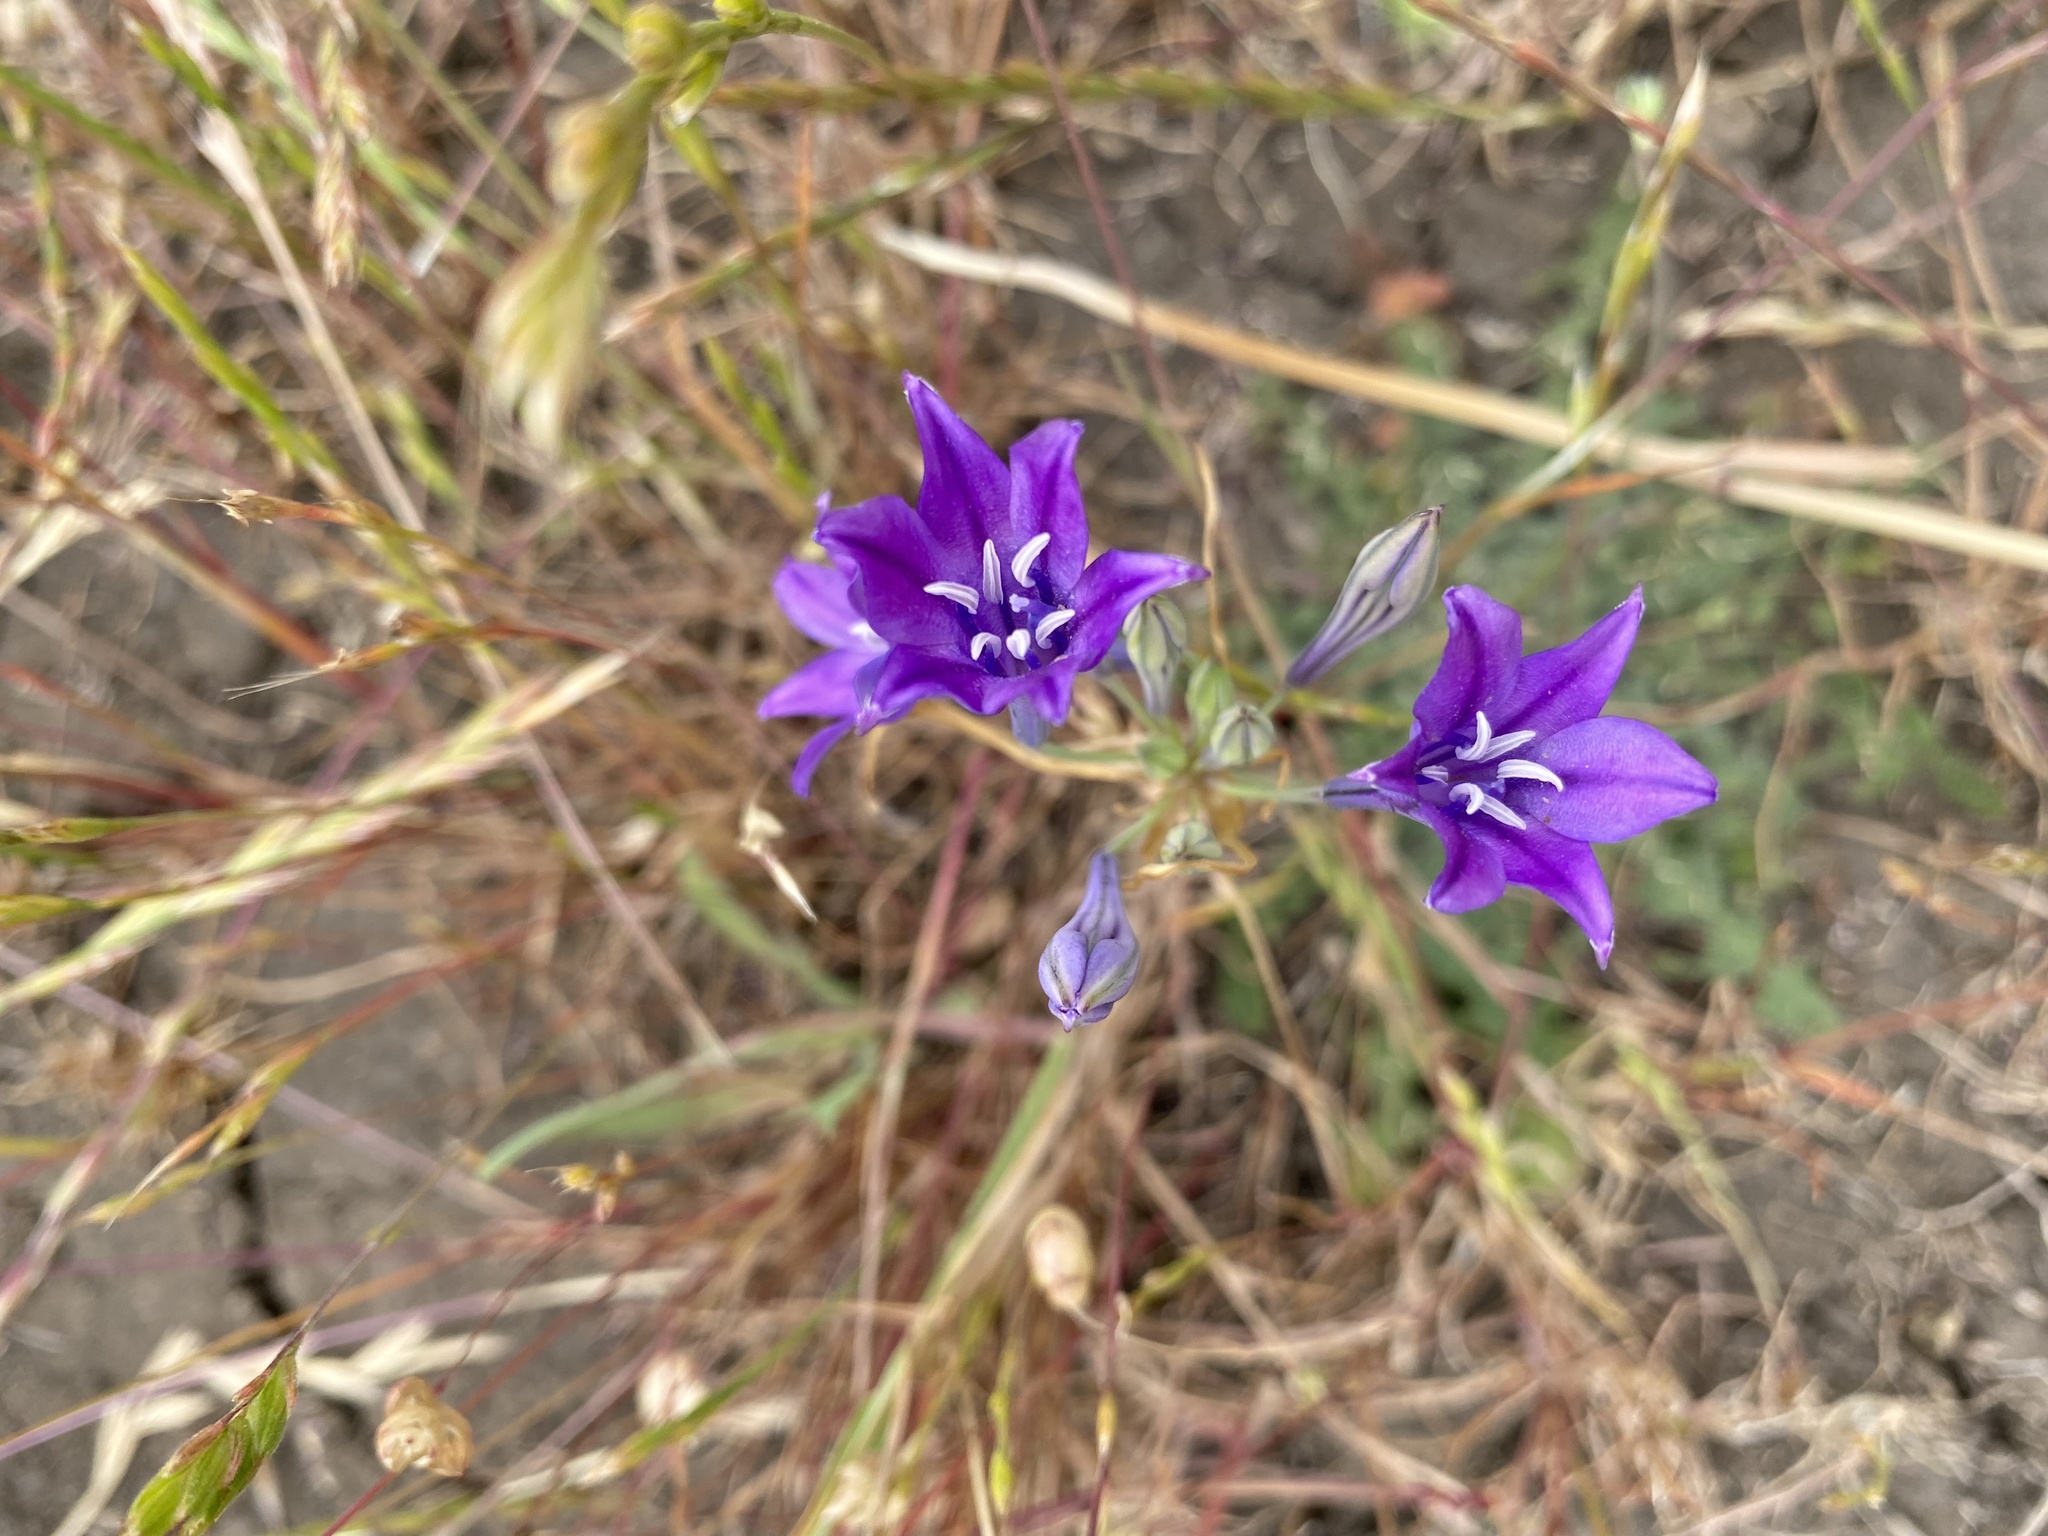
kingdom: Plantae
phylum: Tracheophyta
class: Liliopsida
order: Asparagales
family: Asparagaceae
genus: Triteleia
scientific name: Triteleia laxa
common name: Triplet-lily
